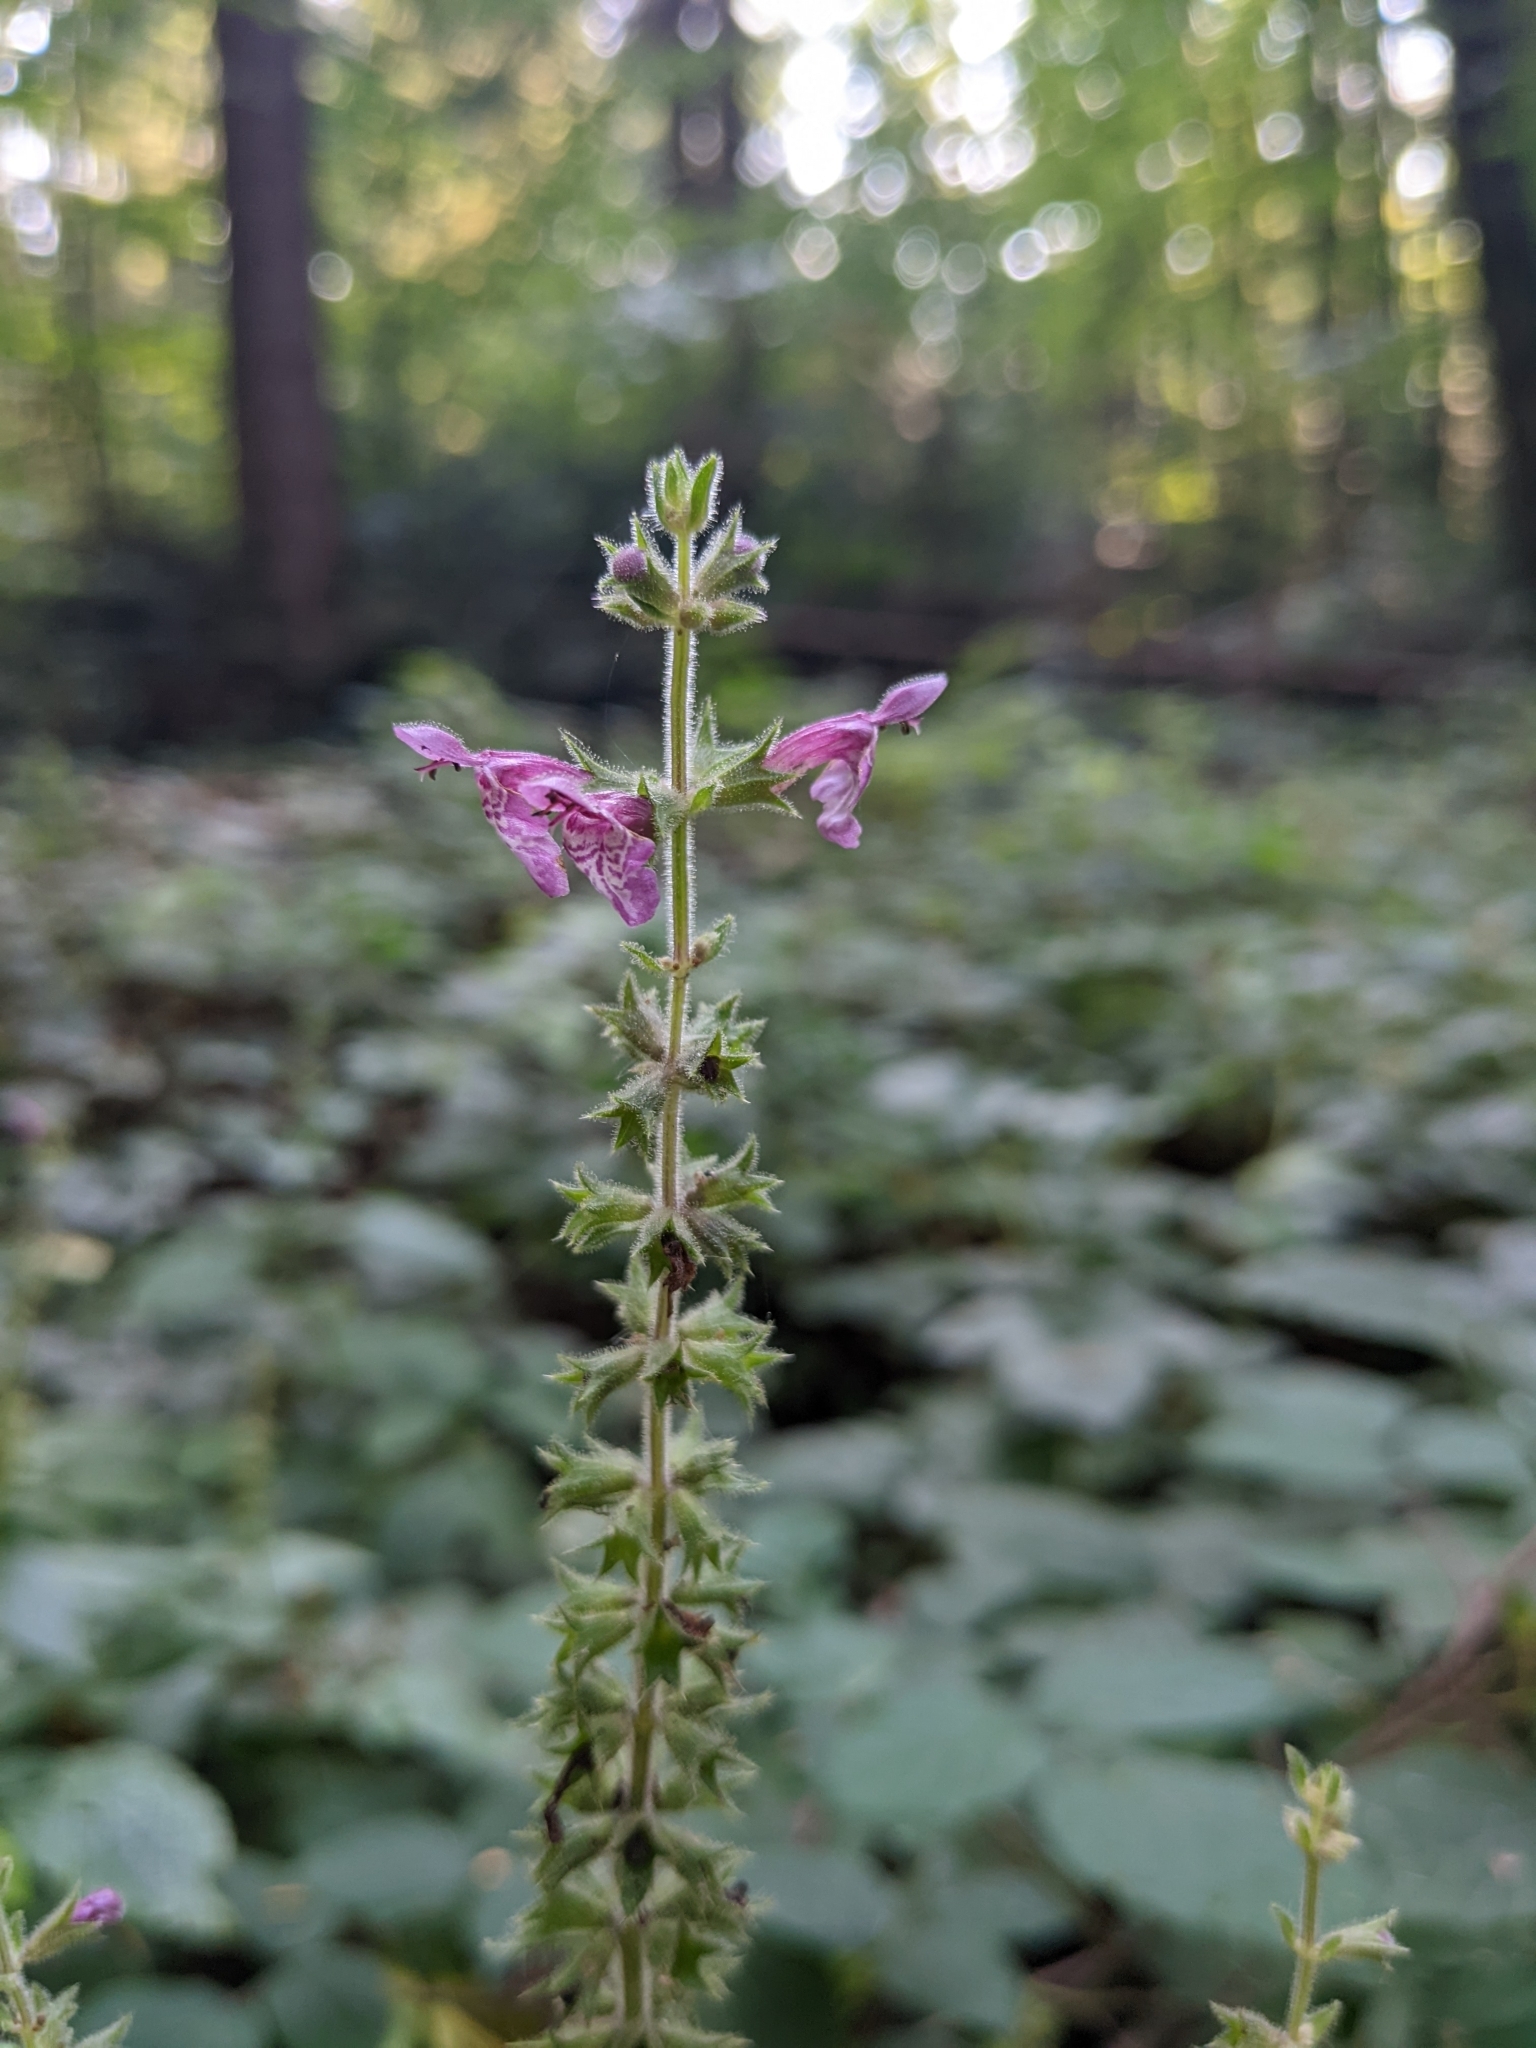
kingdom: Plantae
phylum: Tracheophyta
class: Magnoliopsida
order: Lamiales
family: Lamiaceae
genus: Stachys
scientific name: Stachys sylvatica
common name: Hedge woundwort
